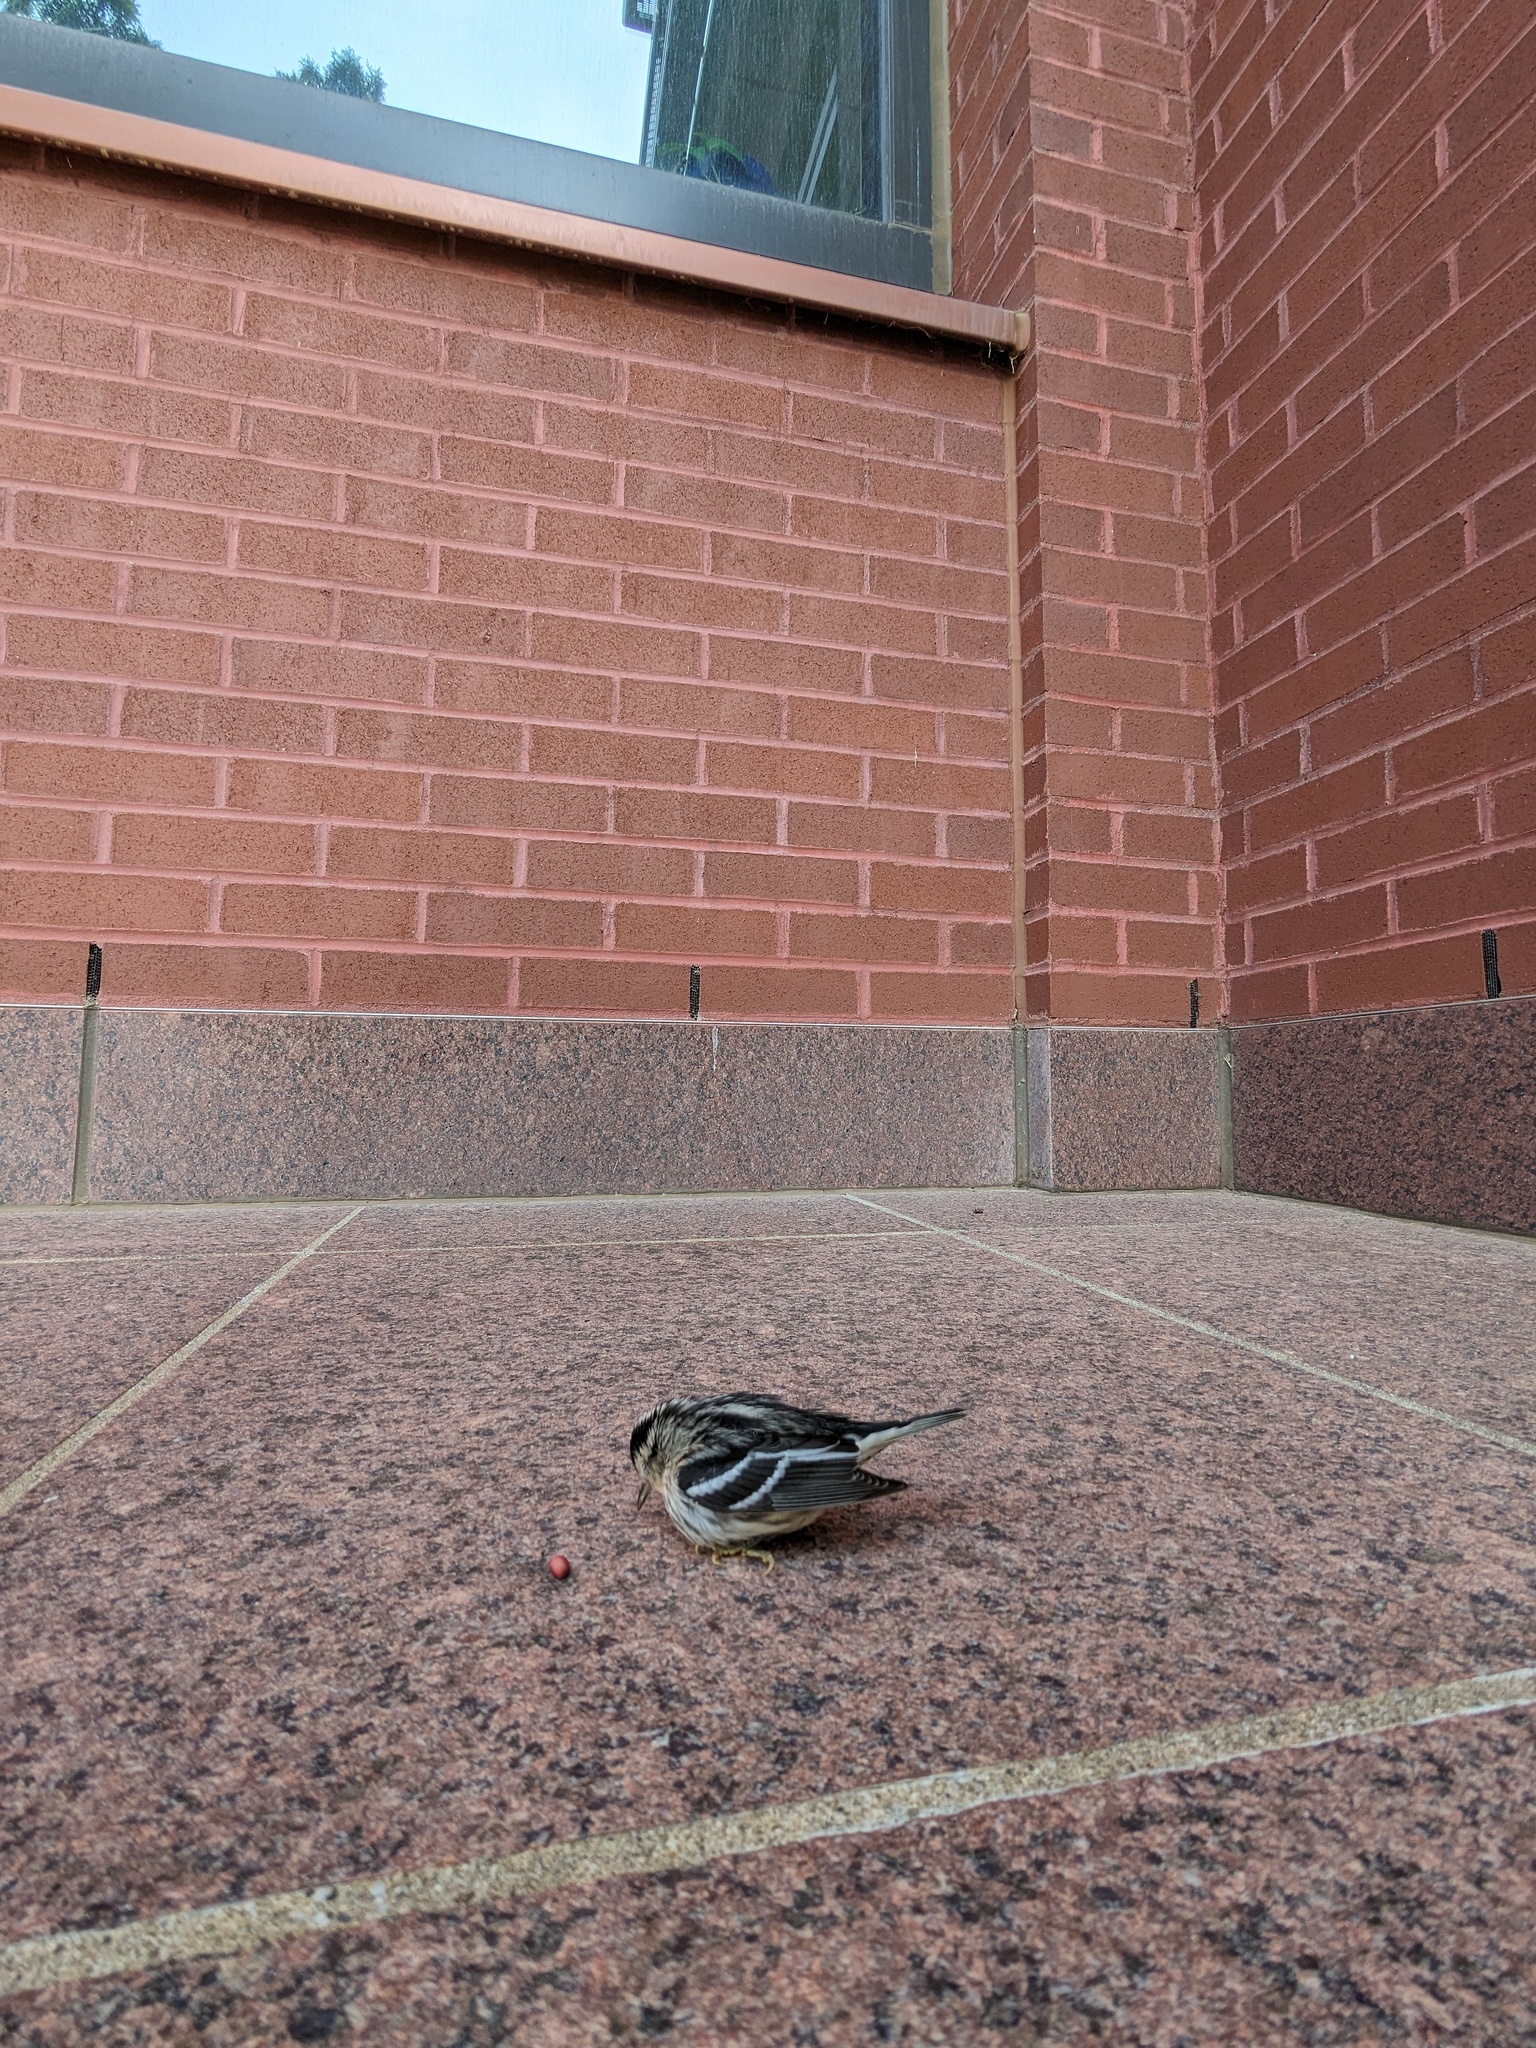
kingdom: Animalia
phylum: Chordata
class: Aves
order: Passeriformes
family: Parulidae
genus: Mniotilta
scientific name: Mniotilta varia
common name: Black-and-white warbler
